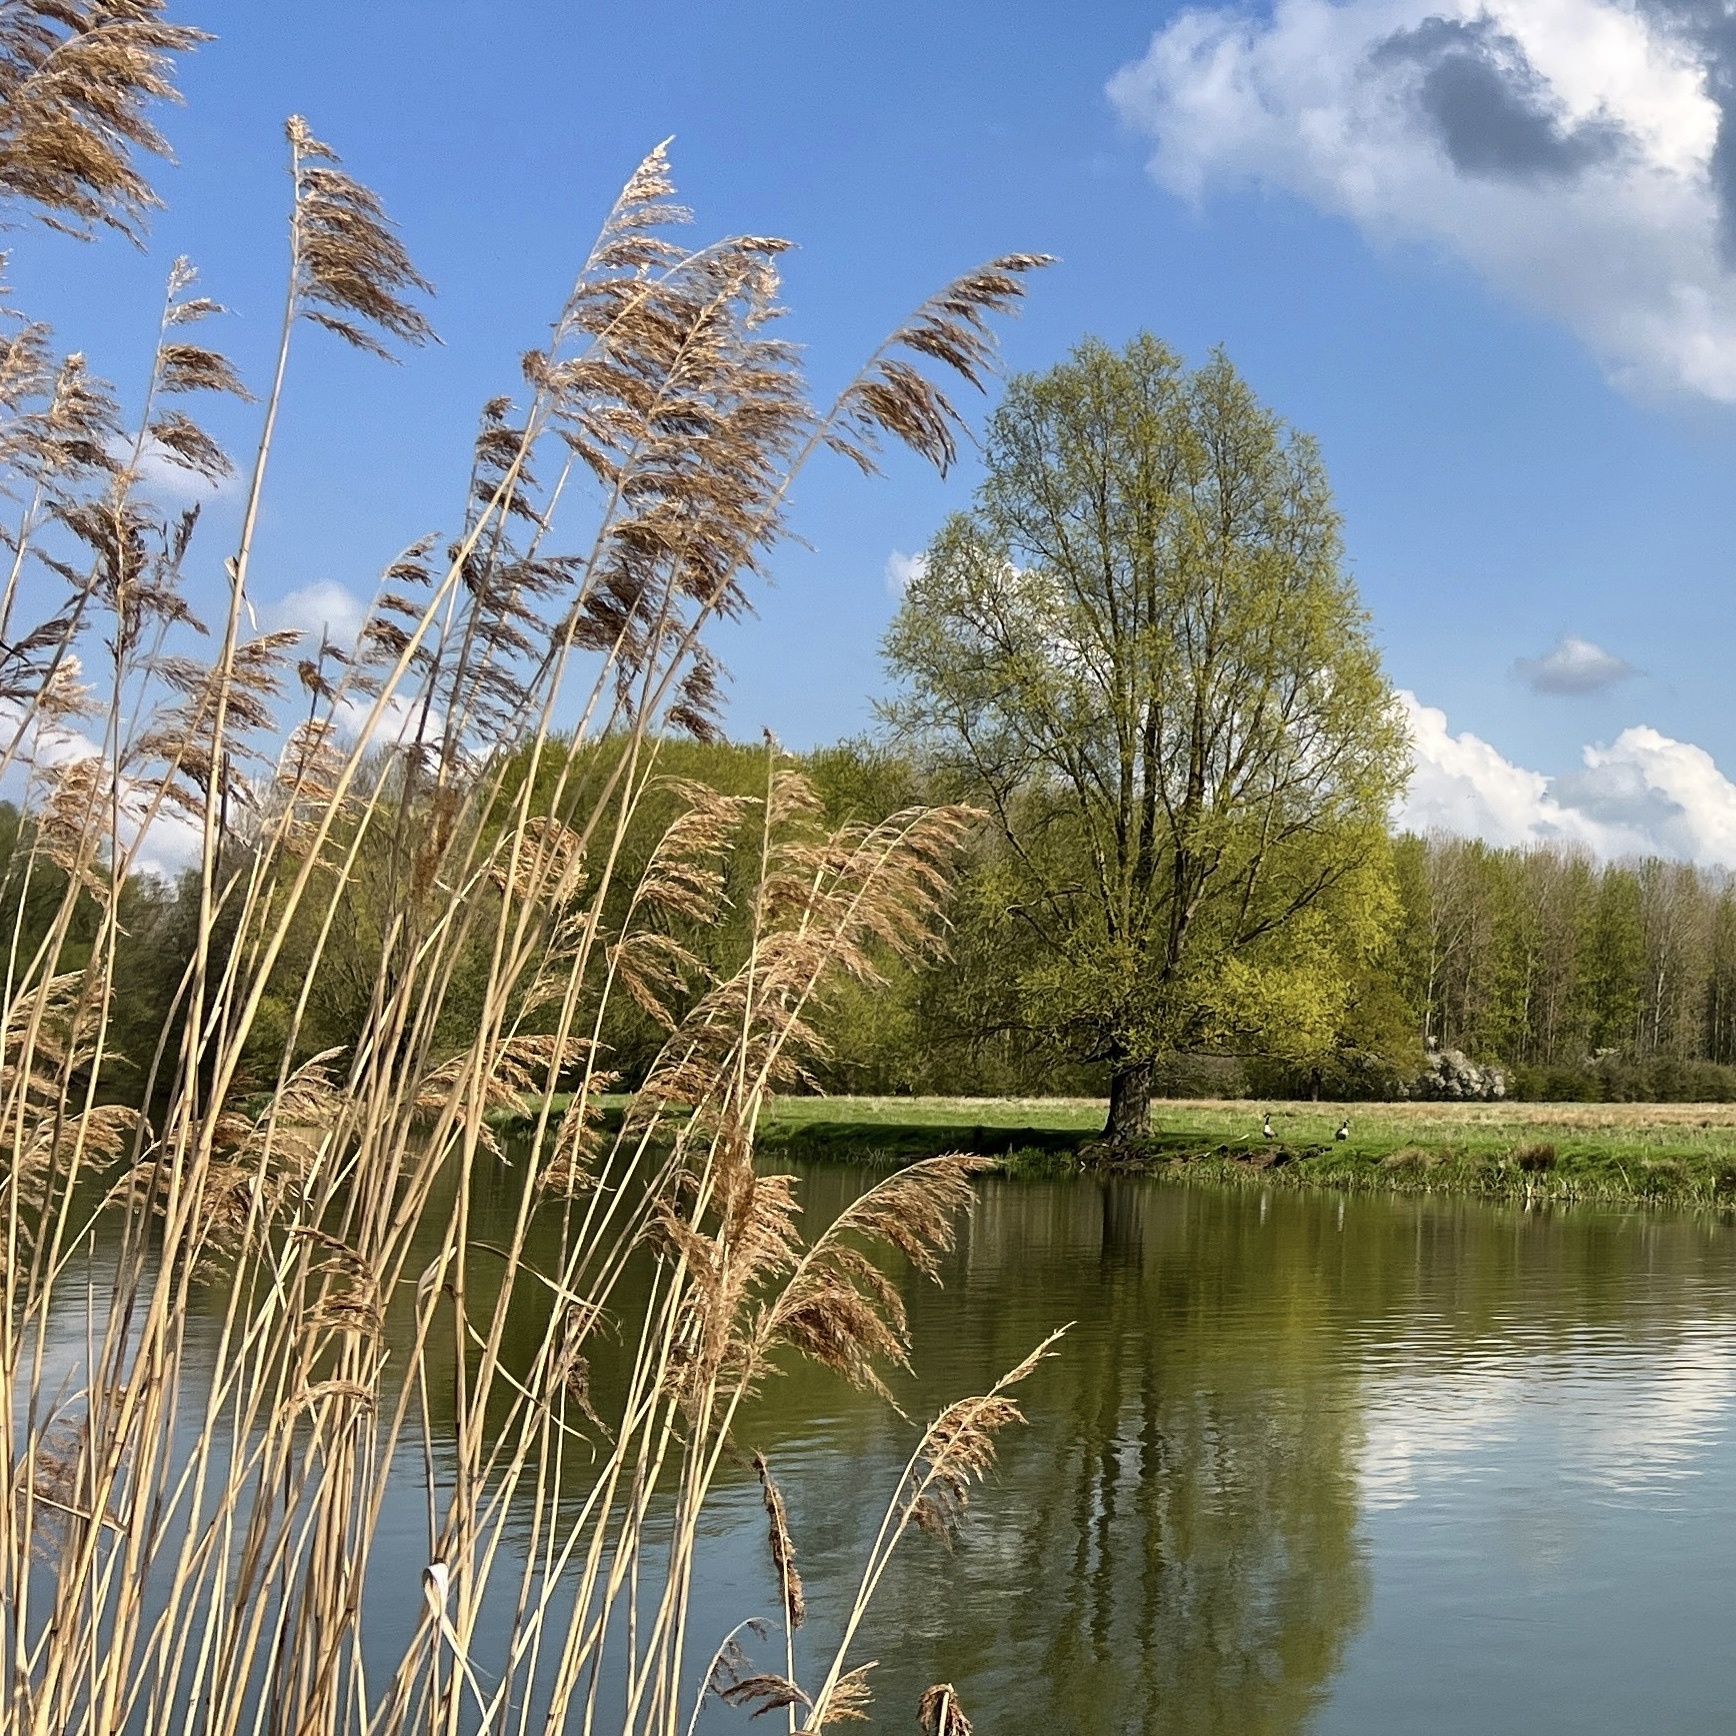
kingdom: Plantae
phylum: Tracheophyta
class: Liliopsida
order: Poales
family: Poaceae
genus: Phragmites
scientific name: Phragmites australis
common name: Common reed
